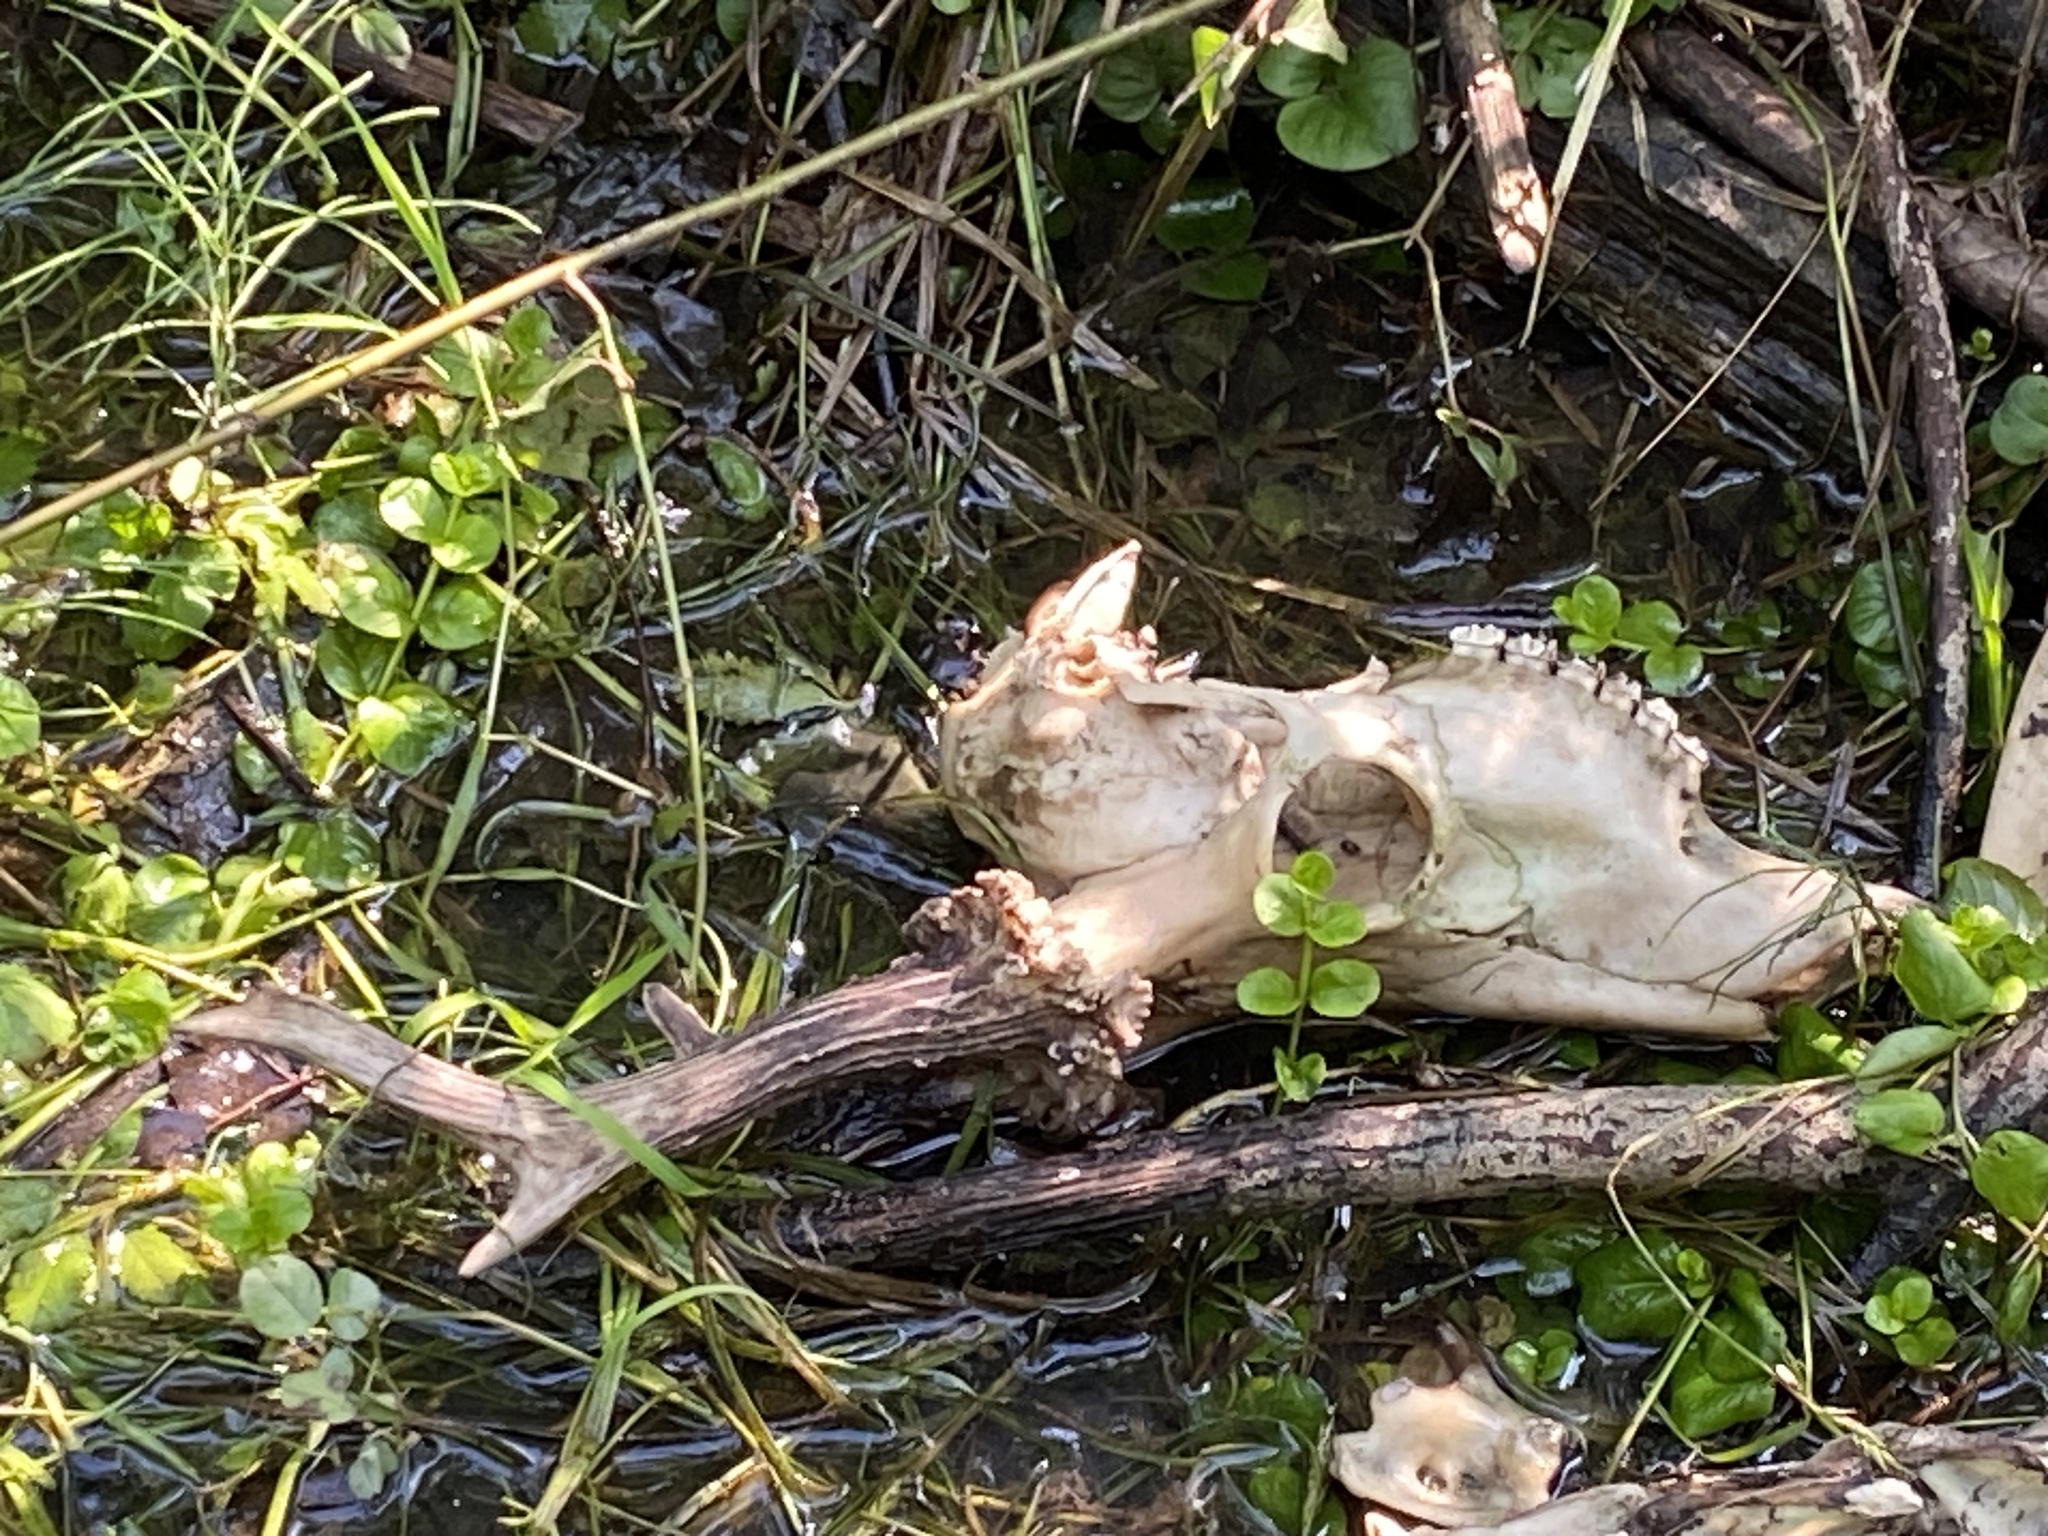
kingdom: Animalia
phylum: Chordata
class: Mammalia
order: Artiodactyla
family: Cervidae
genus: Capreolus
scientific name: Capreolus capreolus
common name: Western roe deer
